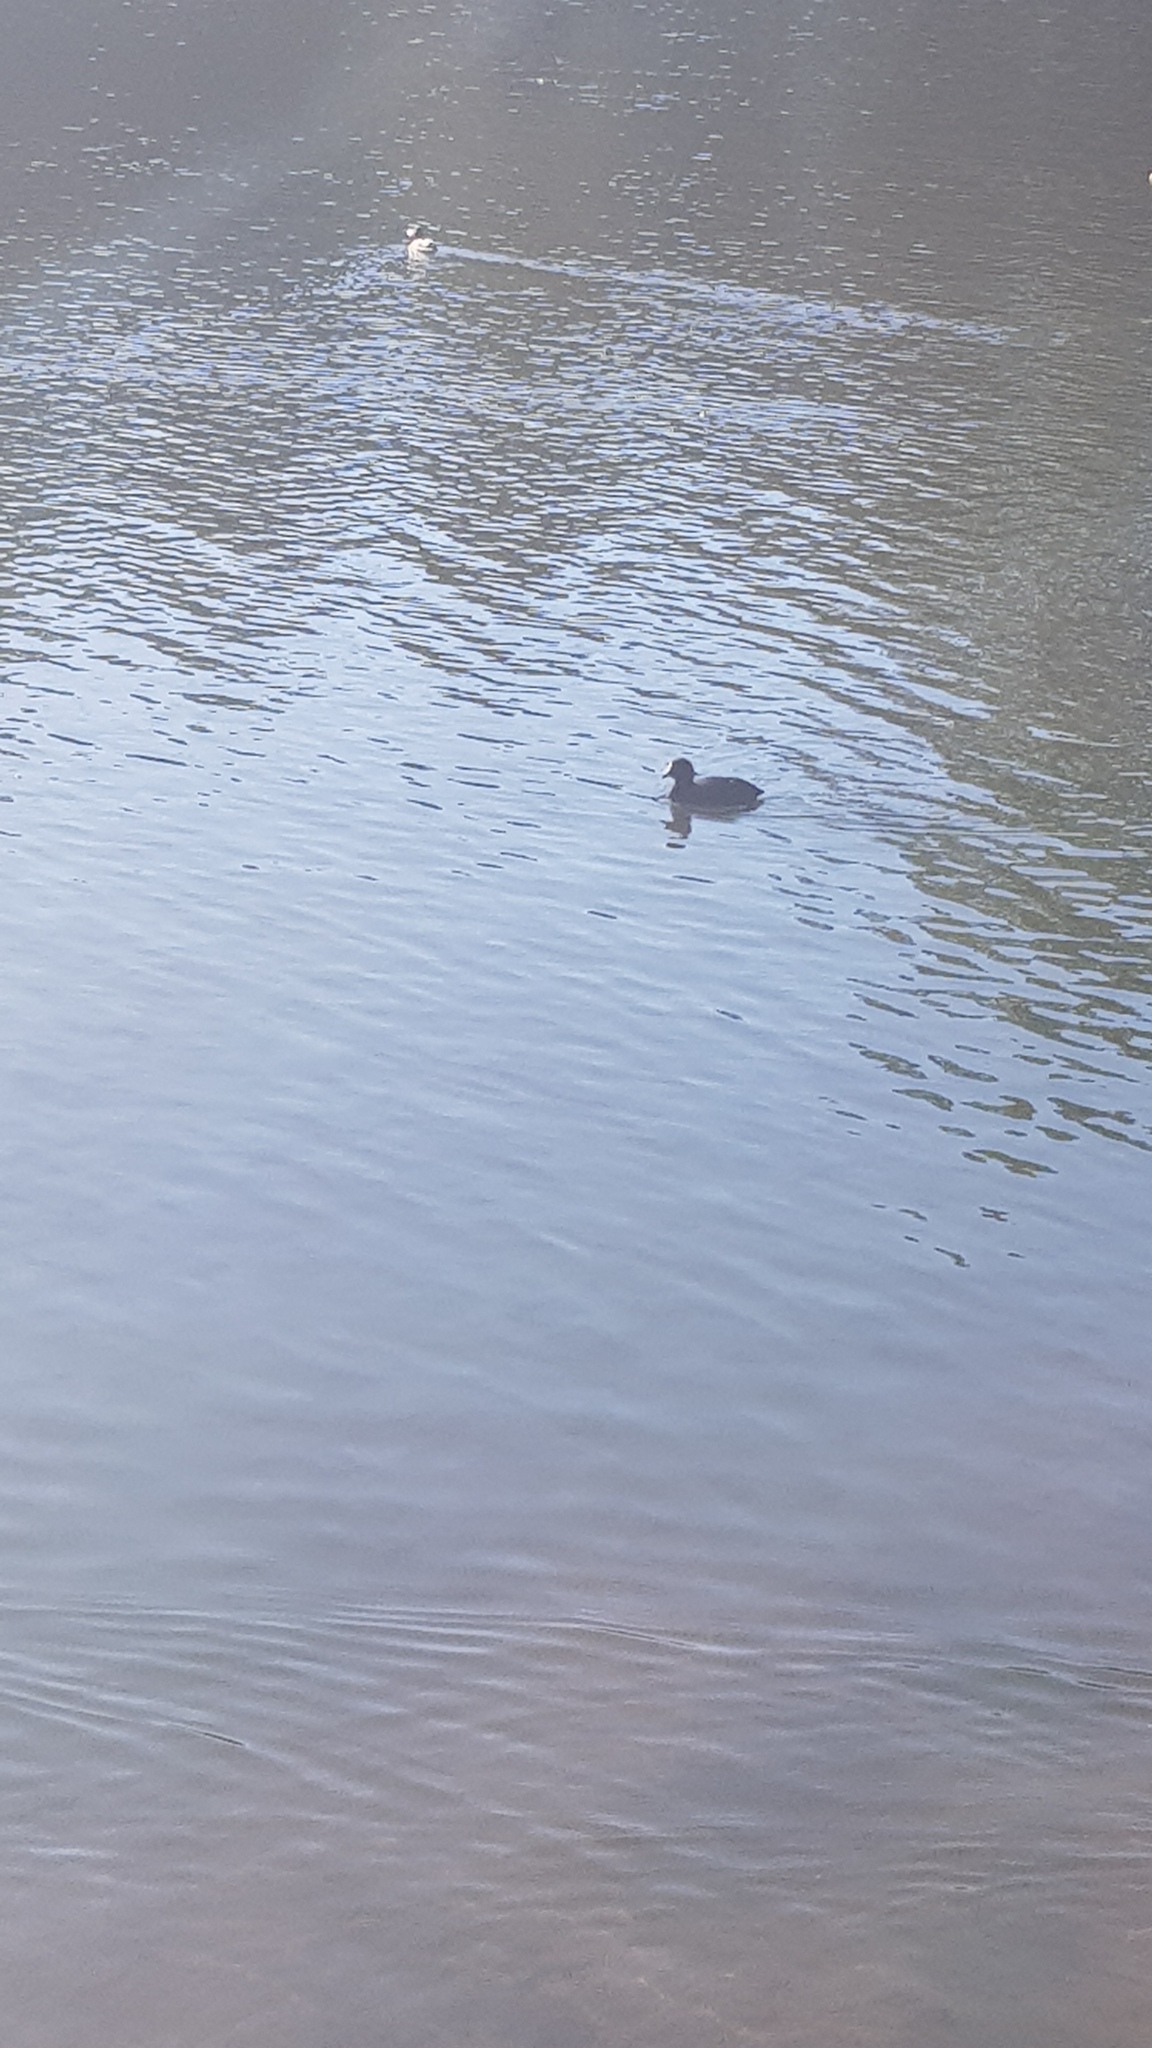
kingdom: Animalia
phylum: Chordata
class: Aves
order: Gruiformes
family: Rallidae
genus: Fulica
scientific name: Fulica atra
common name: Eurasian coot
